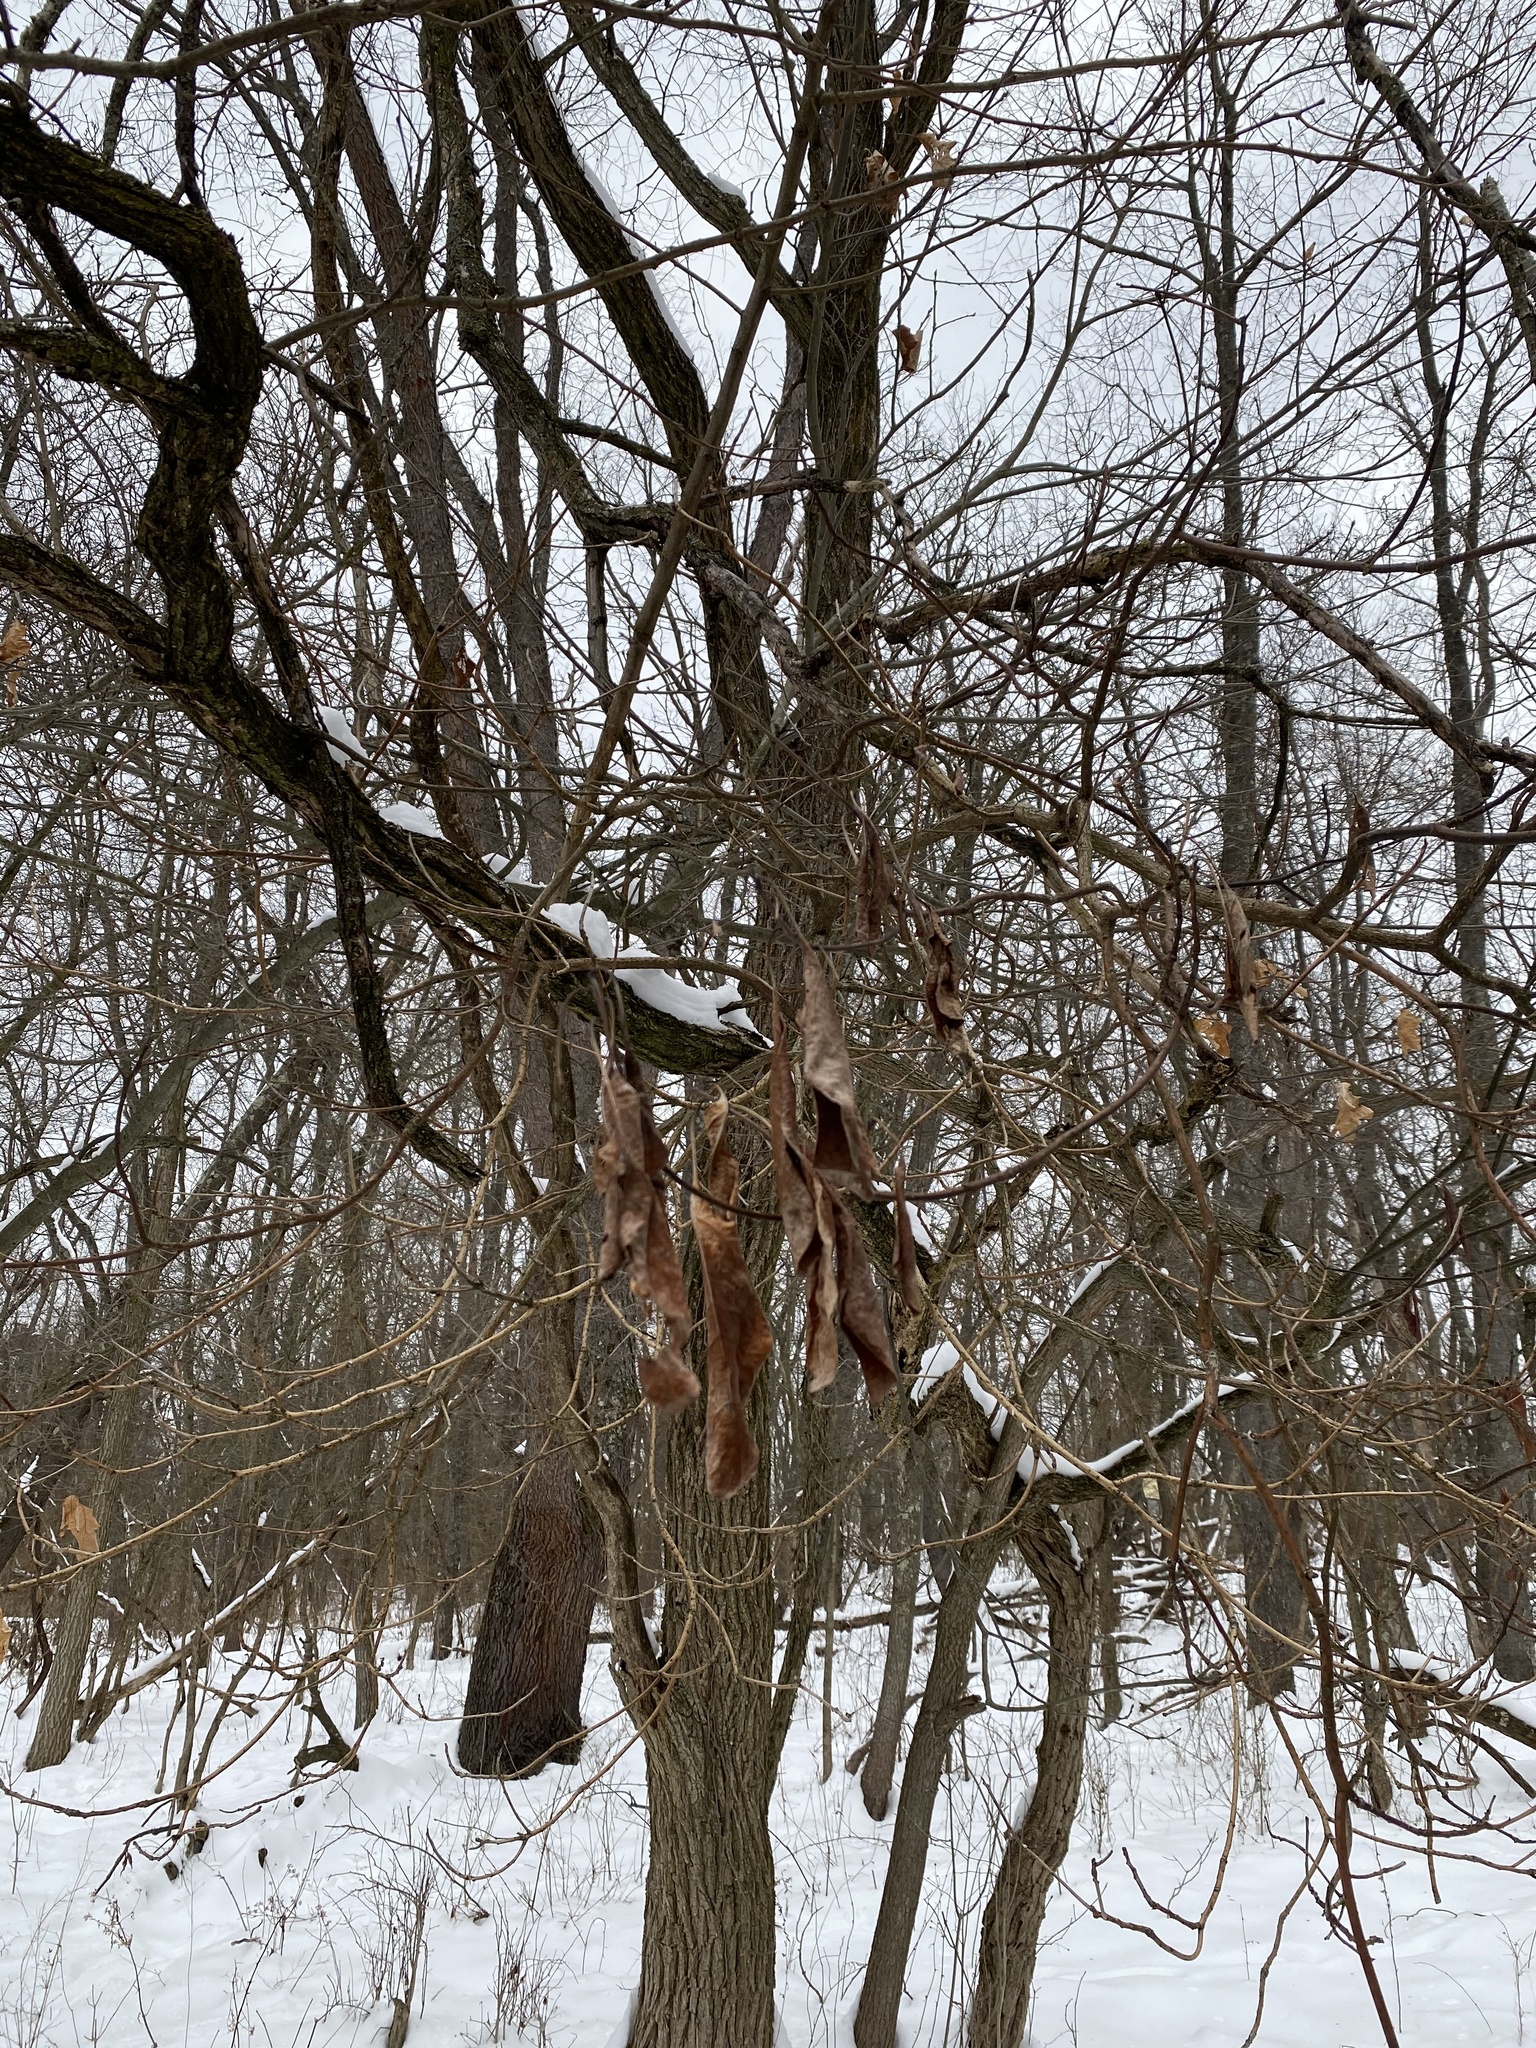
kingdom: Plantae
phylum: Tracheophyta
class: Magnoliopsida
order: Laurales
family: Lauraceae
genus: Sassafras
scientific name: Sassafras albidum
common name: Sassafras
